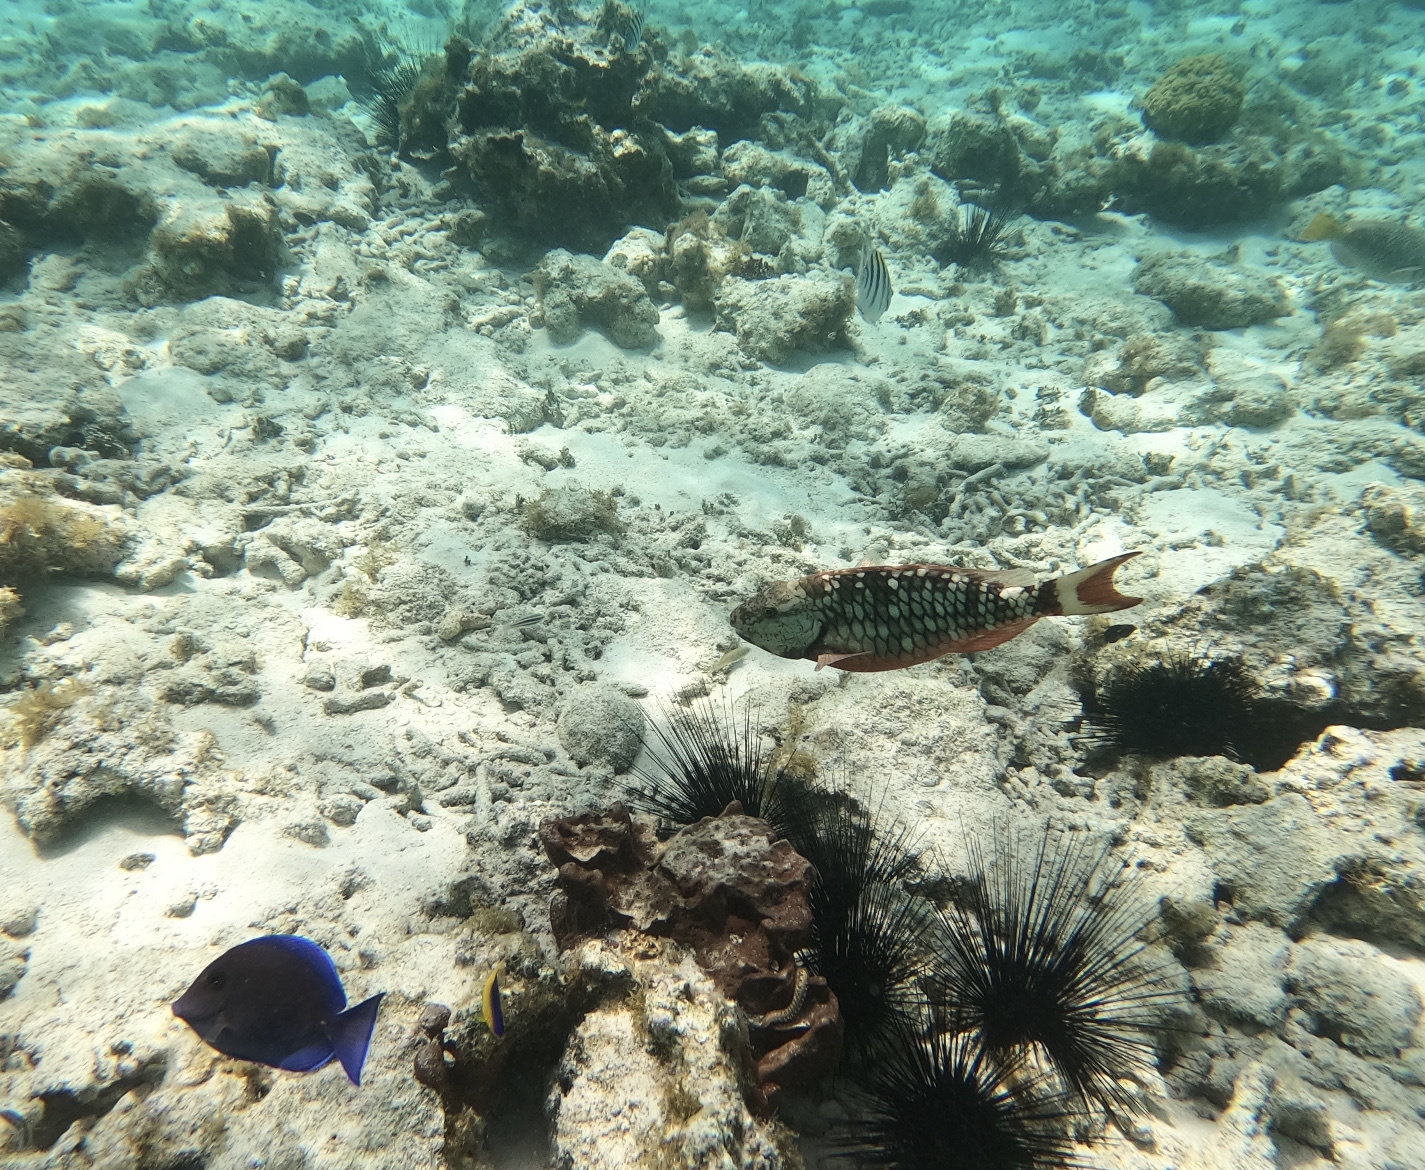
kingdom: Animalia
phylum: Chordata
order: Perciformes
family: Scaridae
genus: Sparisoma
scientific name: Sparisoma viride
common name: Stoplight parrotfish
